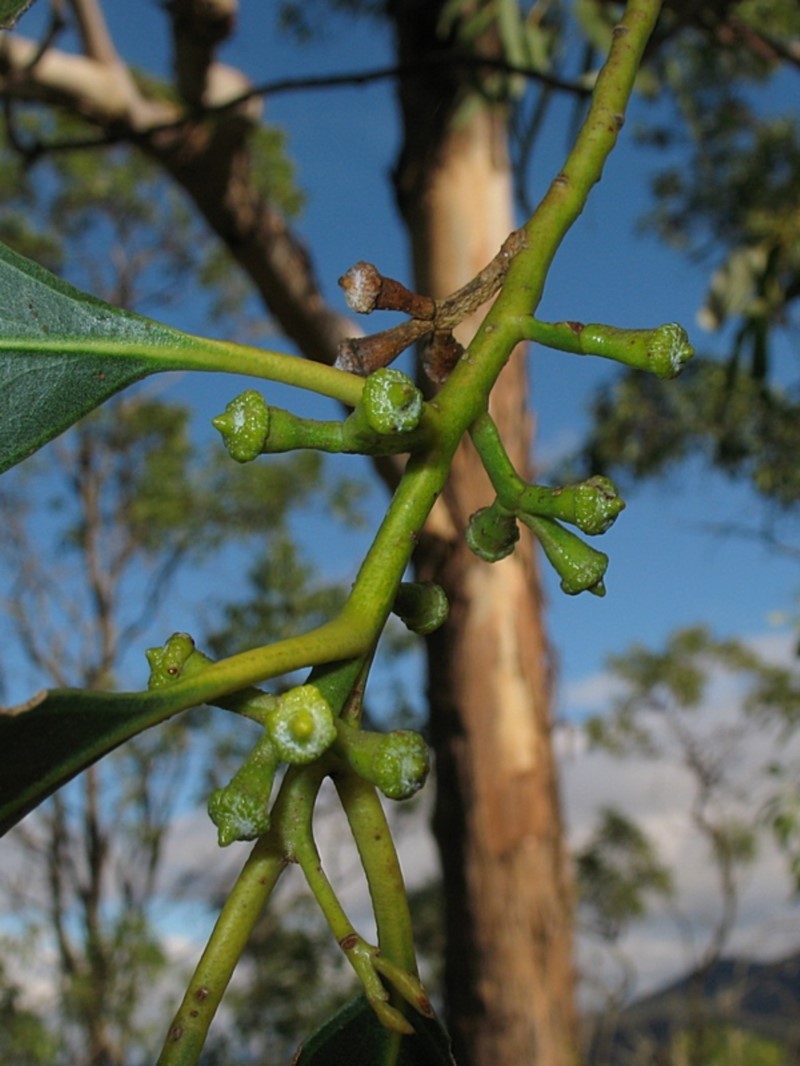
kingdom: Plantae
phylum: Tracheophyta
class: Magnoliopsida
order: Myrtales
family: Myrtaceae
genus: Eucalyptus
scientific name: Eucalyptus globulus
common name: Southern blue-gum
